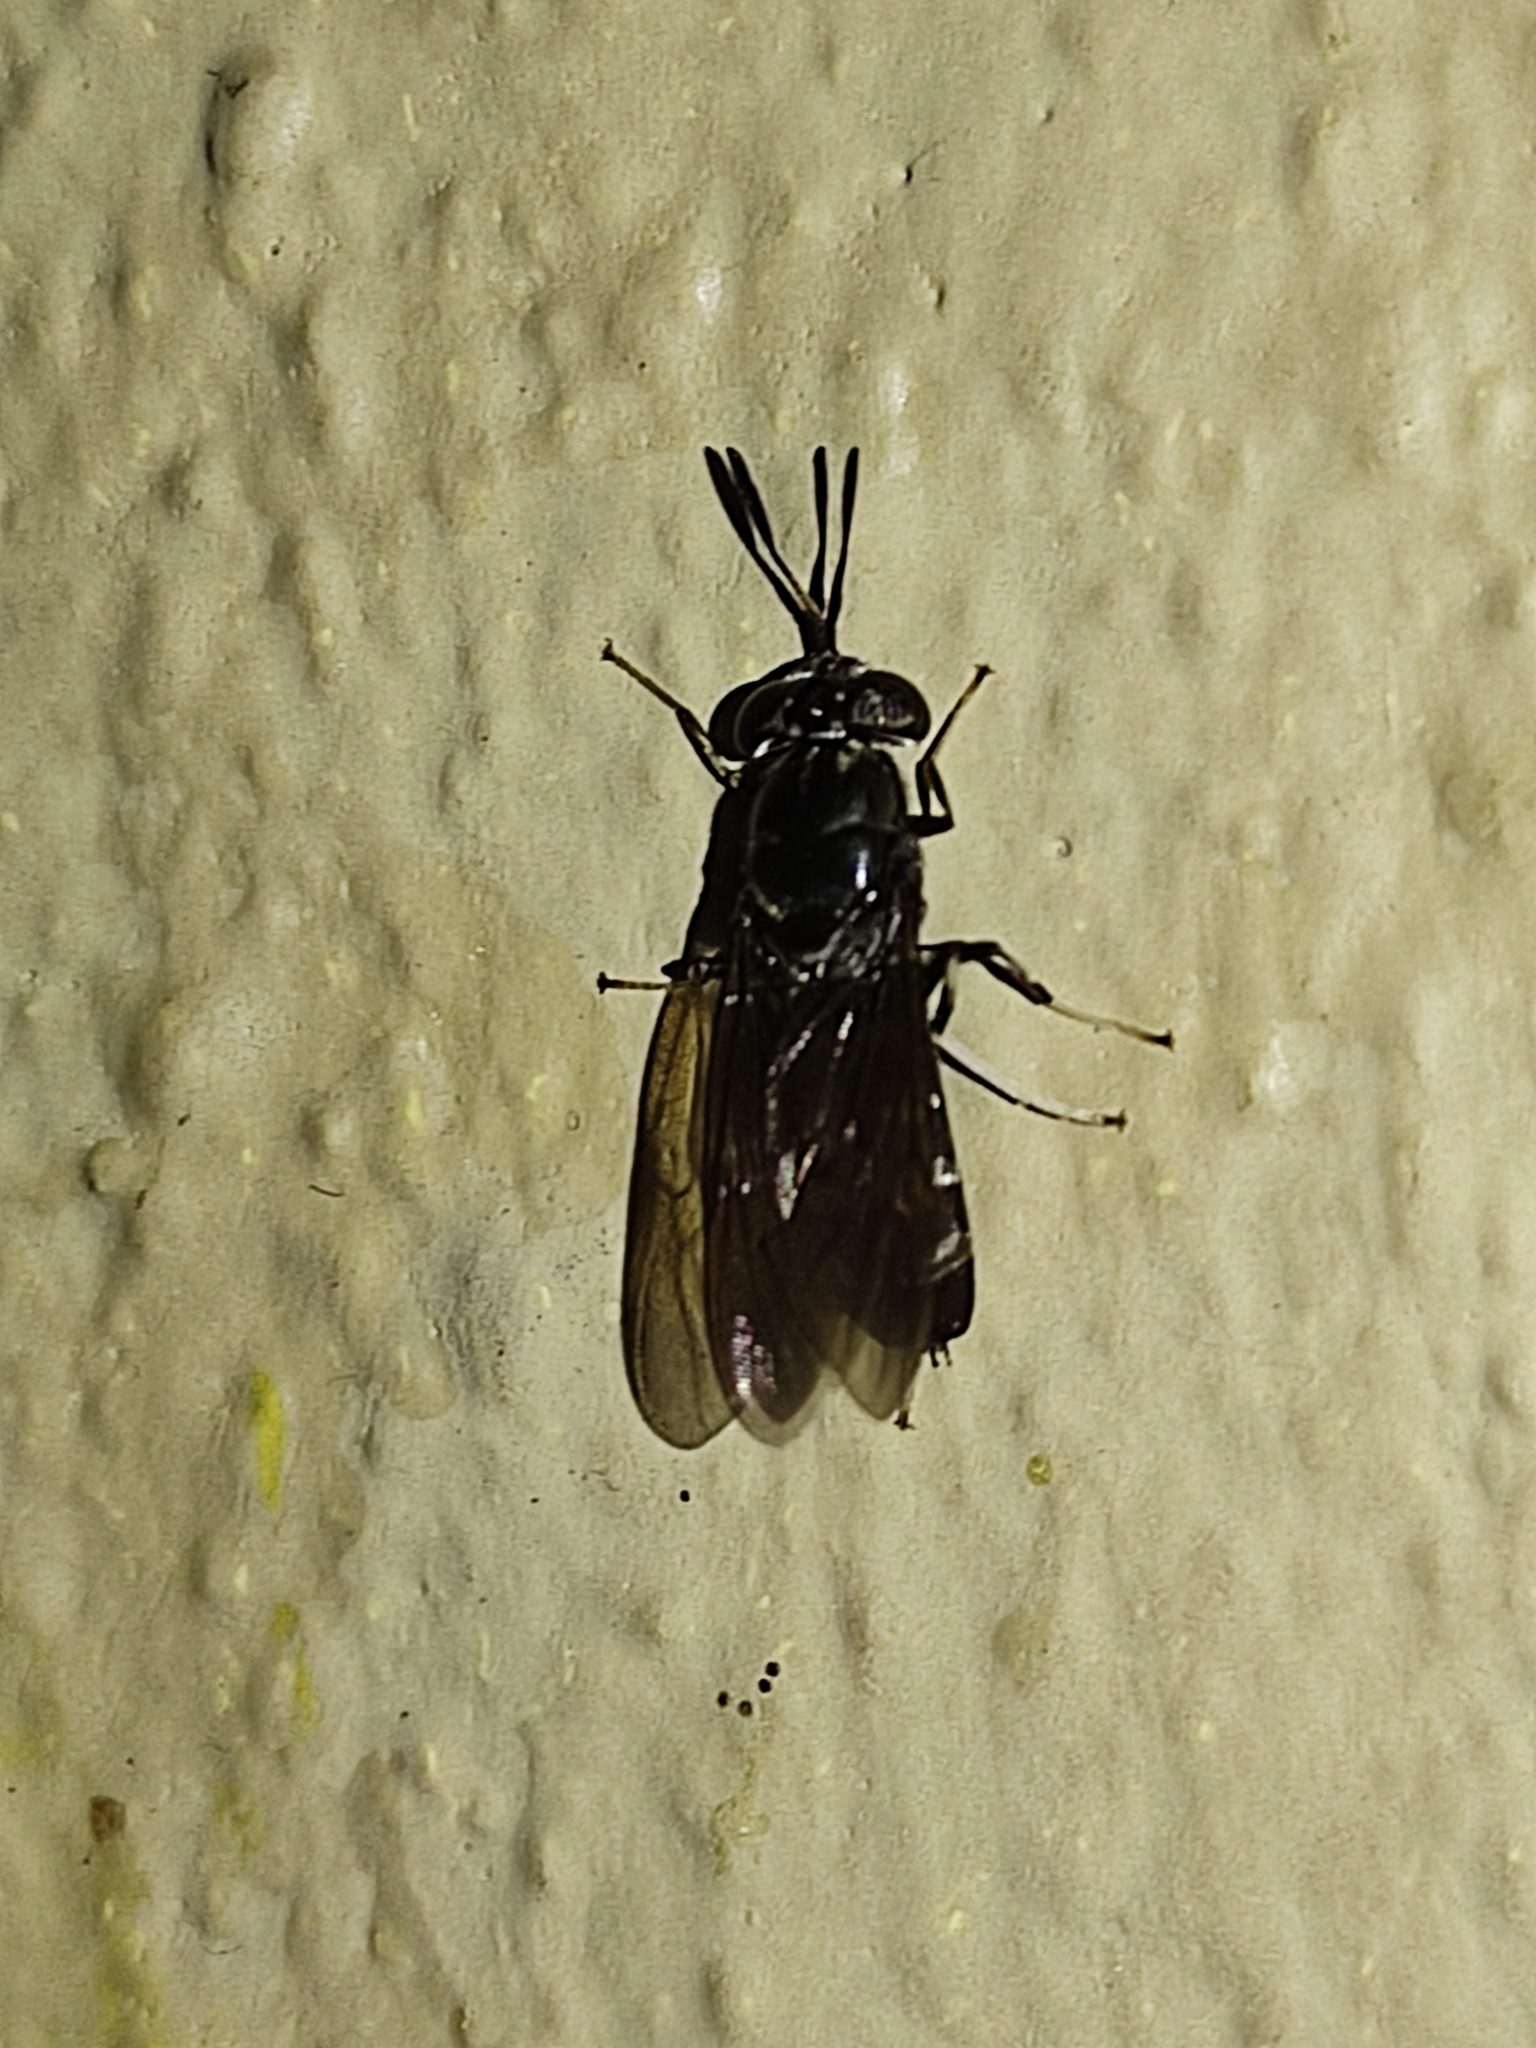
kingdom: Animalia
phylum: Arthropoda
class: Insecta
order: Diptera
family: Stratiomyidae
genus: Hermetia
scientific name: Hermetia illucens
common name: Black soldier fly
